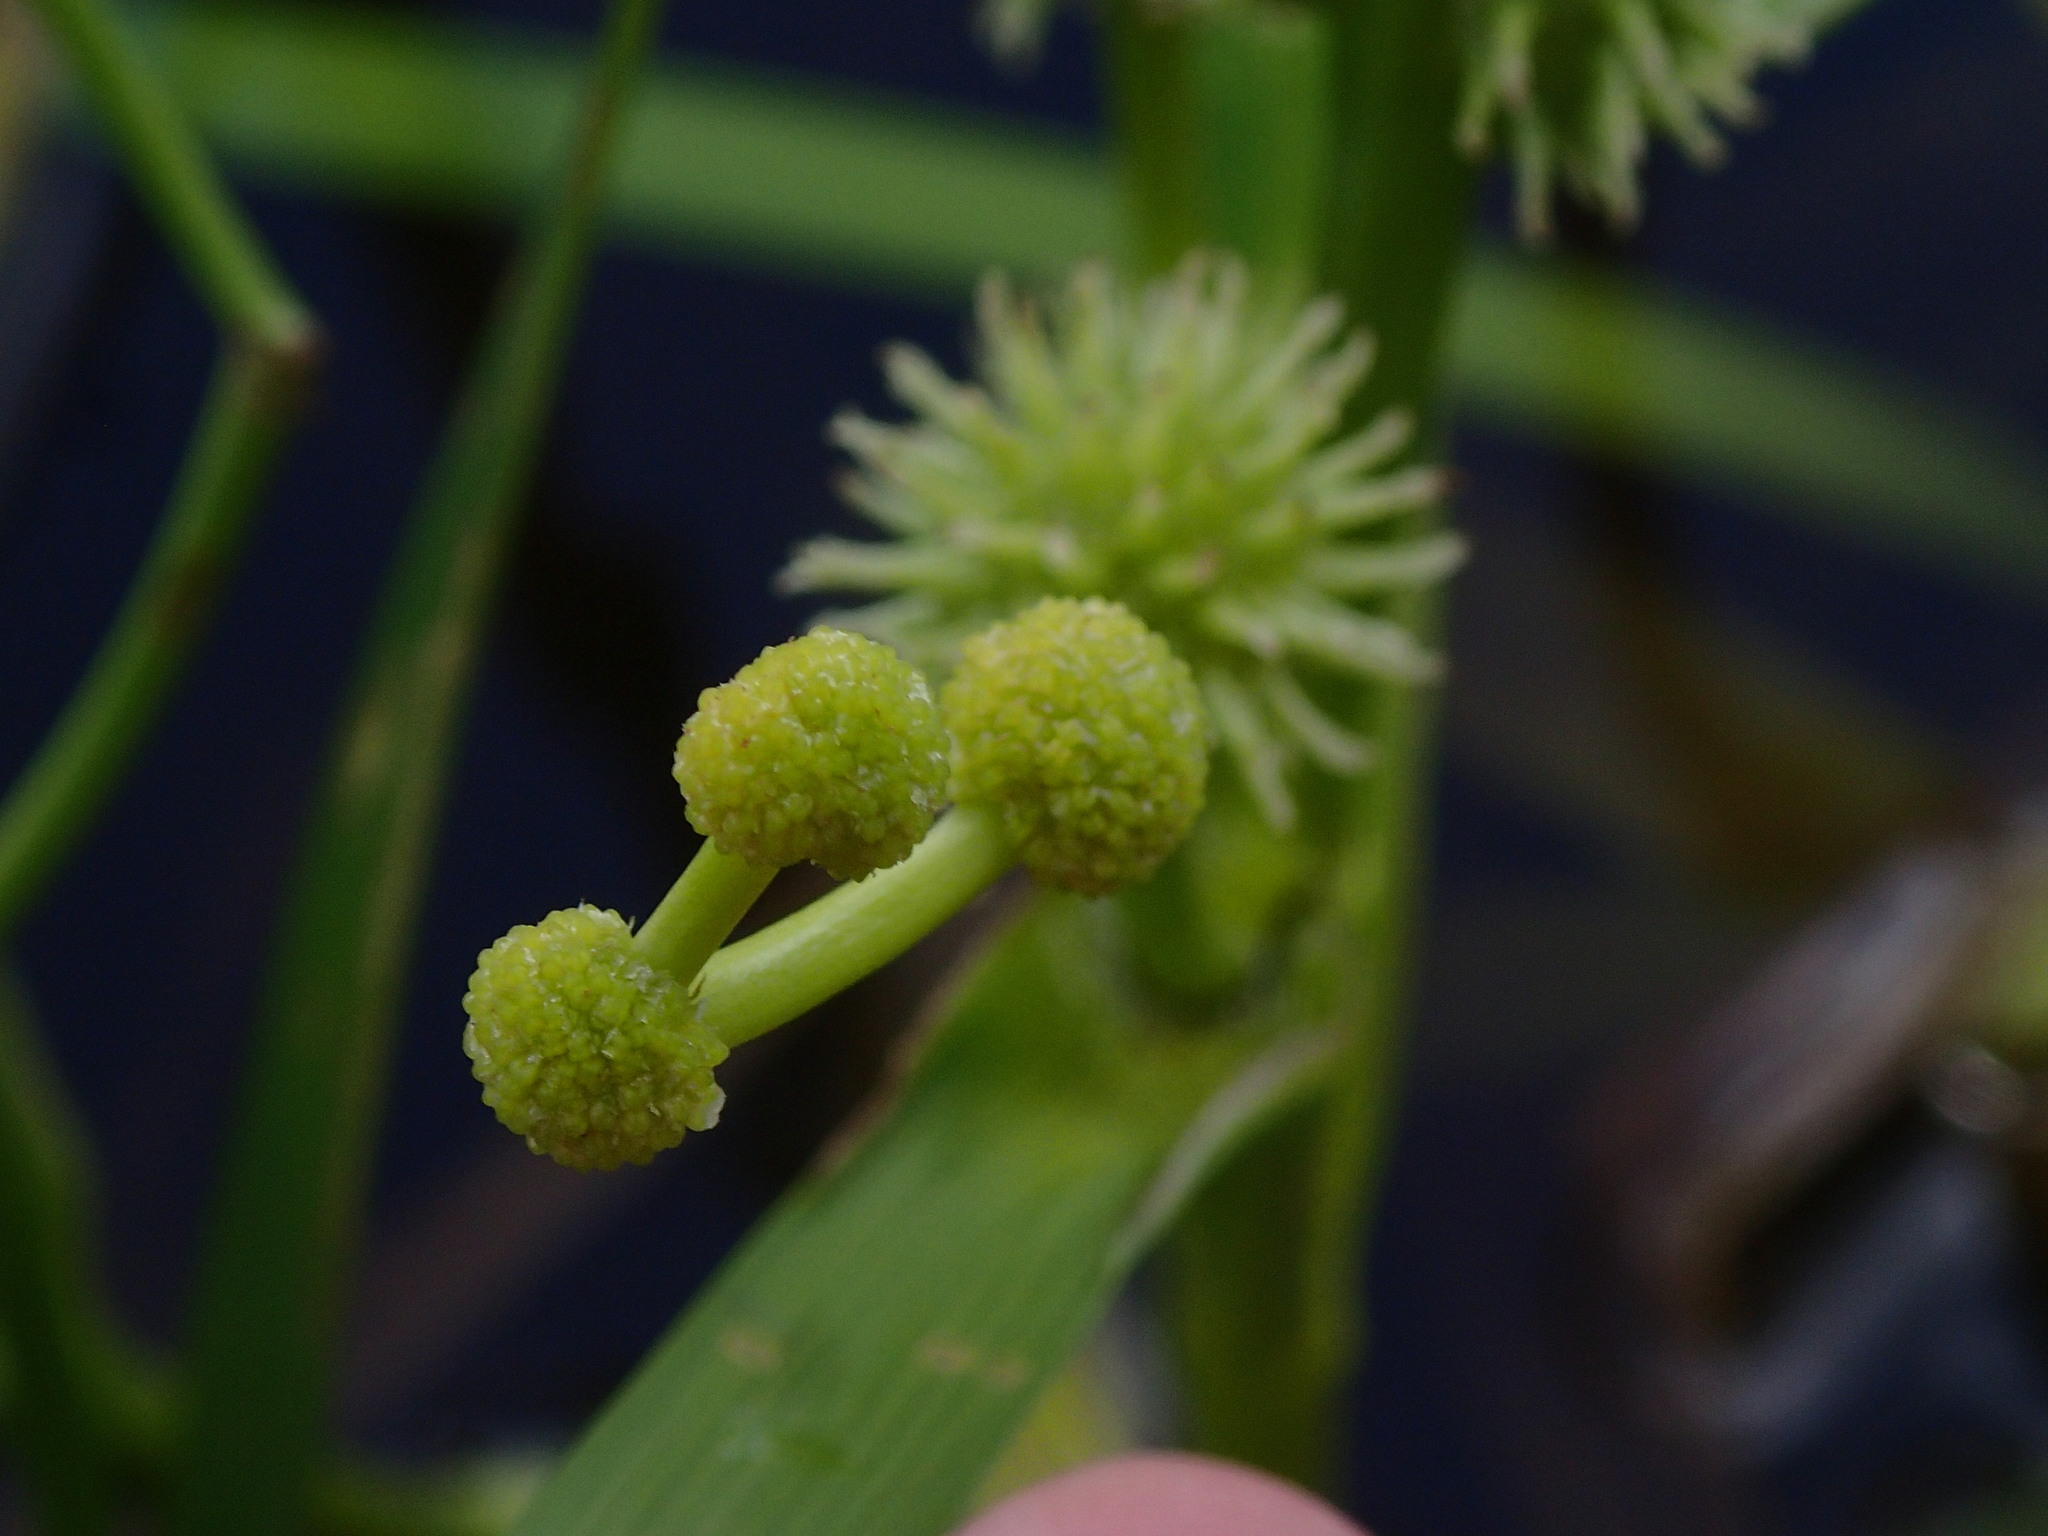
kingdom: Plantae
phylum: Tracheophyta
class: Liliopsida
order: Poales
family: Typhaceae
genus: Sparganium
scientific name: Sparganium angustifolium
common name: Floating bur-reed
